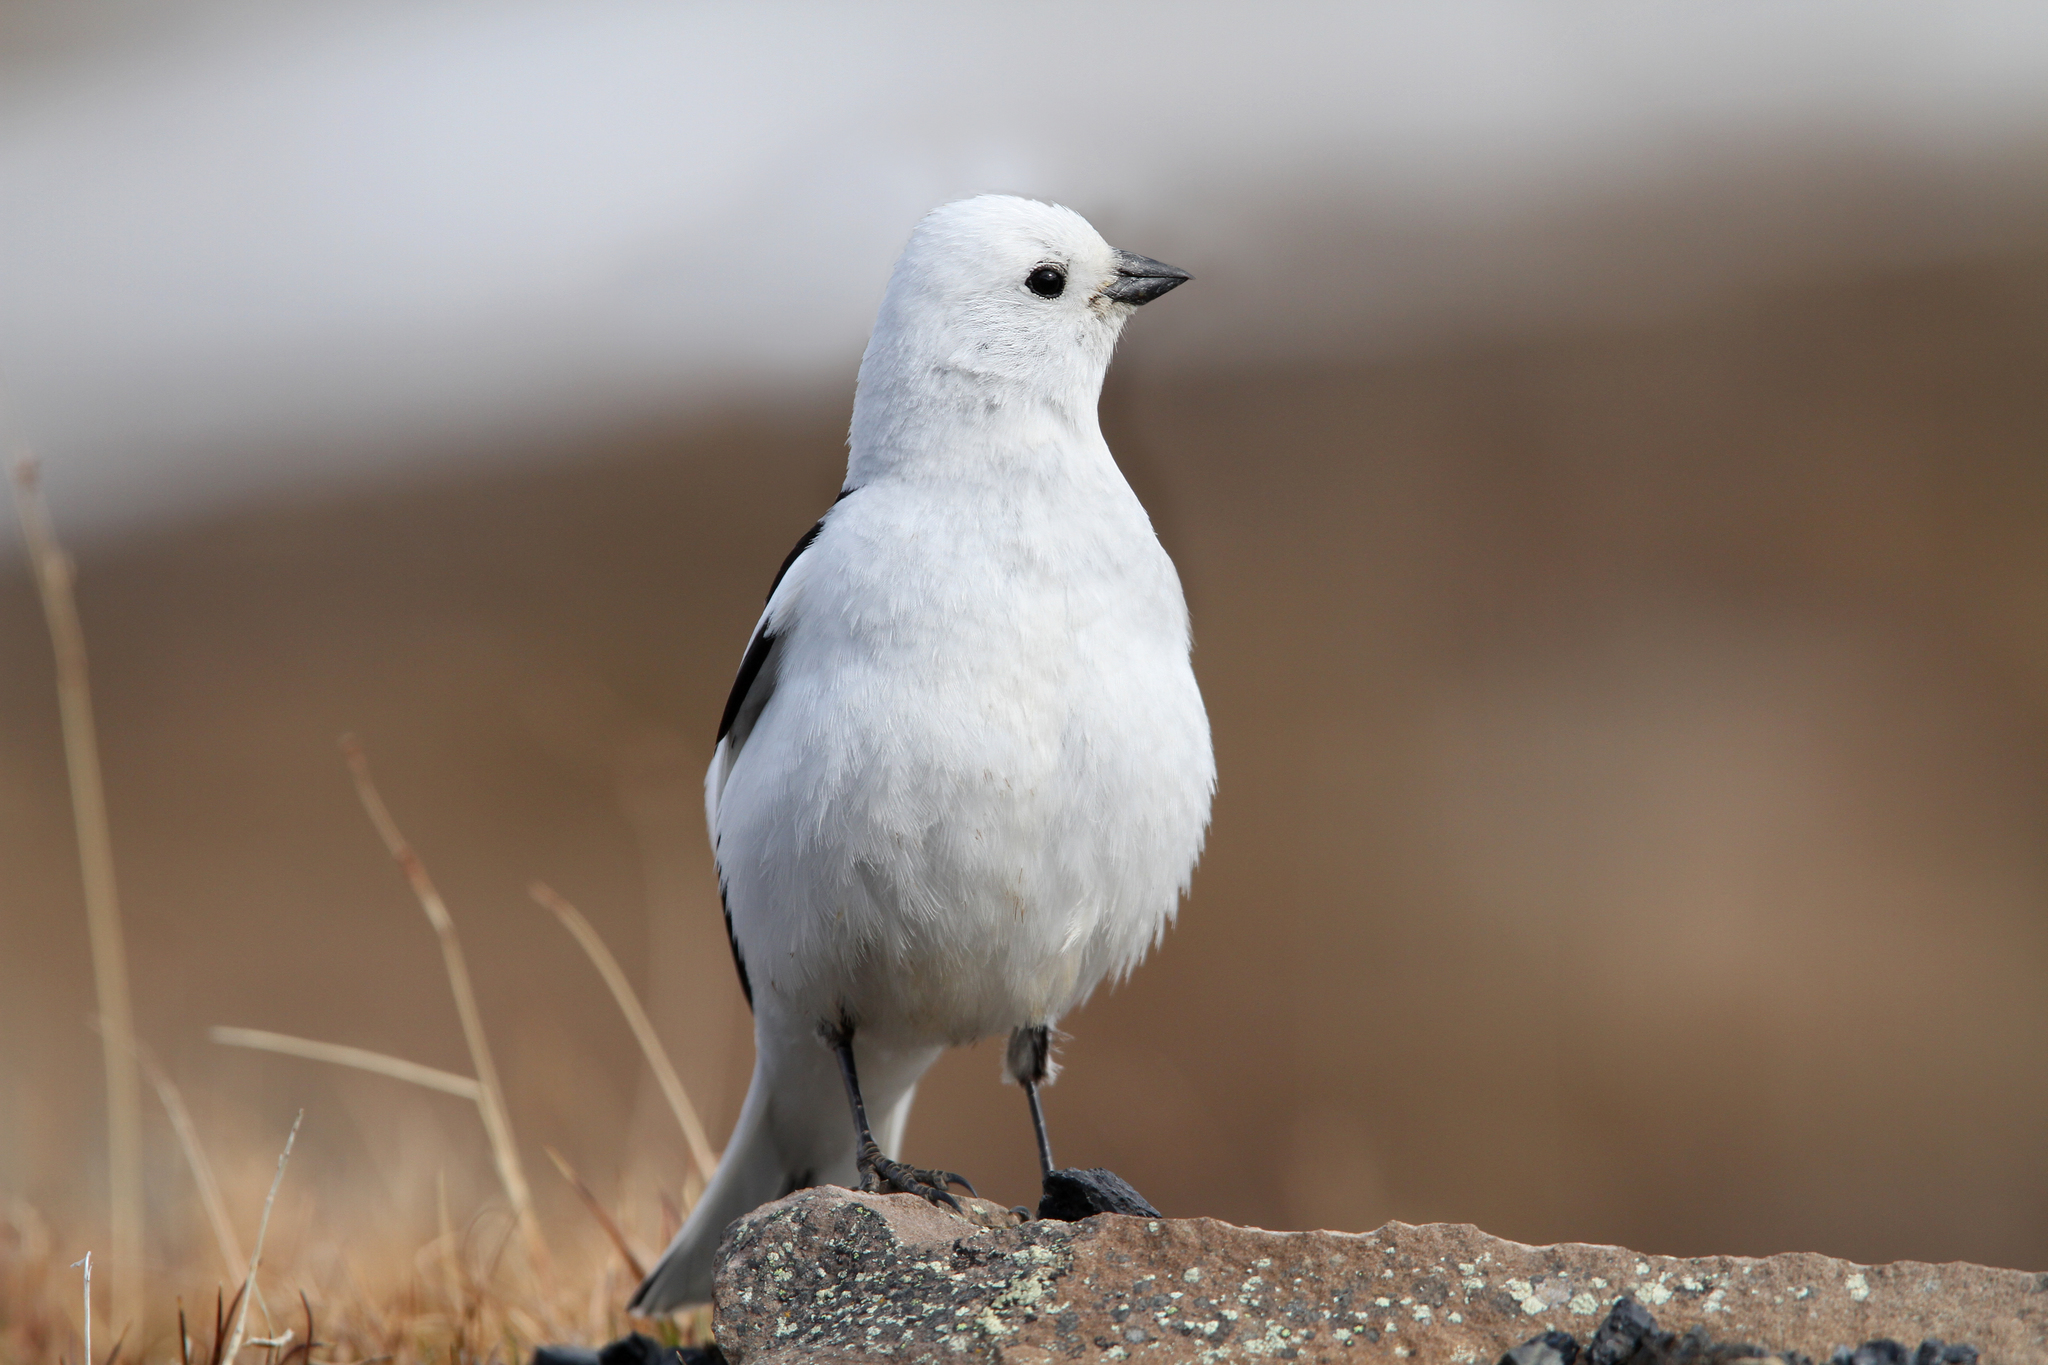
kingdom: Animalia
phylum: Chordata
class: Aves
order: Passeriformes
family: Calcariidae
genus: Plectrophenax
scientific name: Plectrophenax nivalis
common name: Snow bunting
